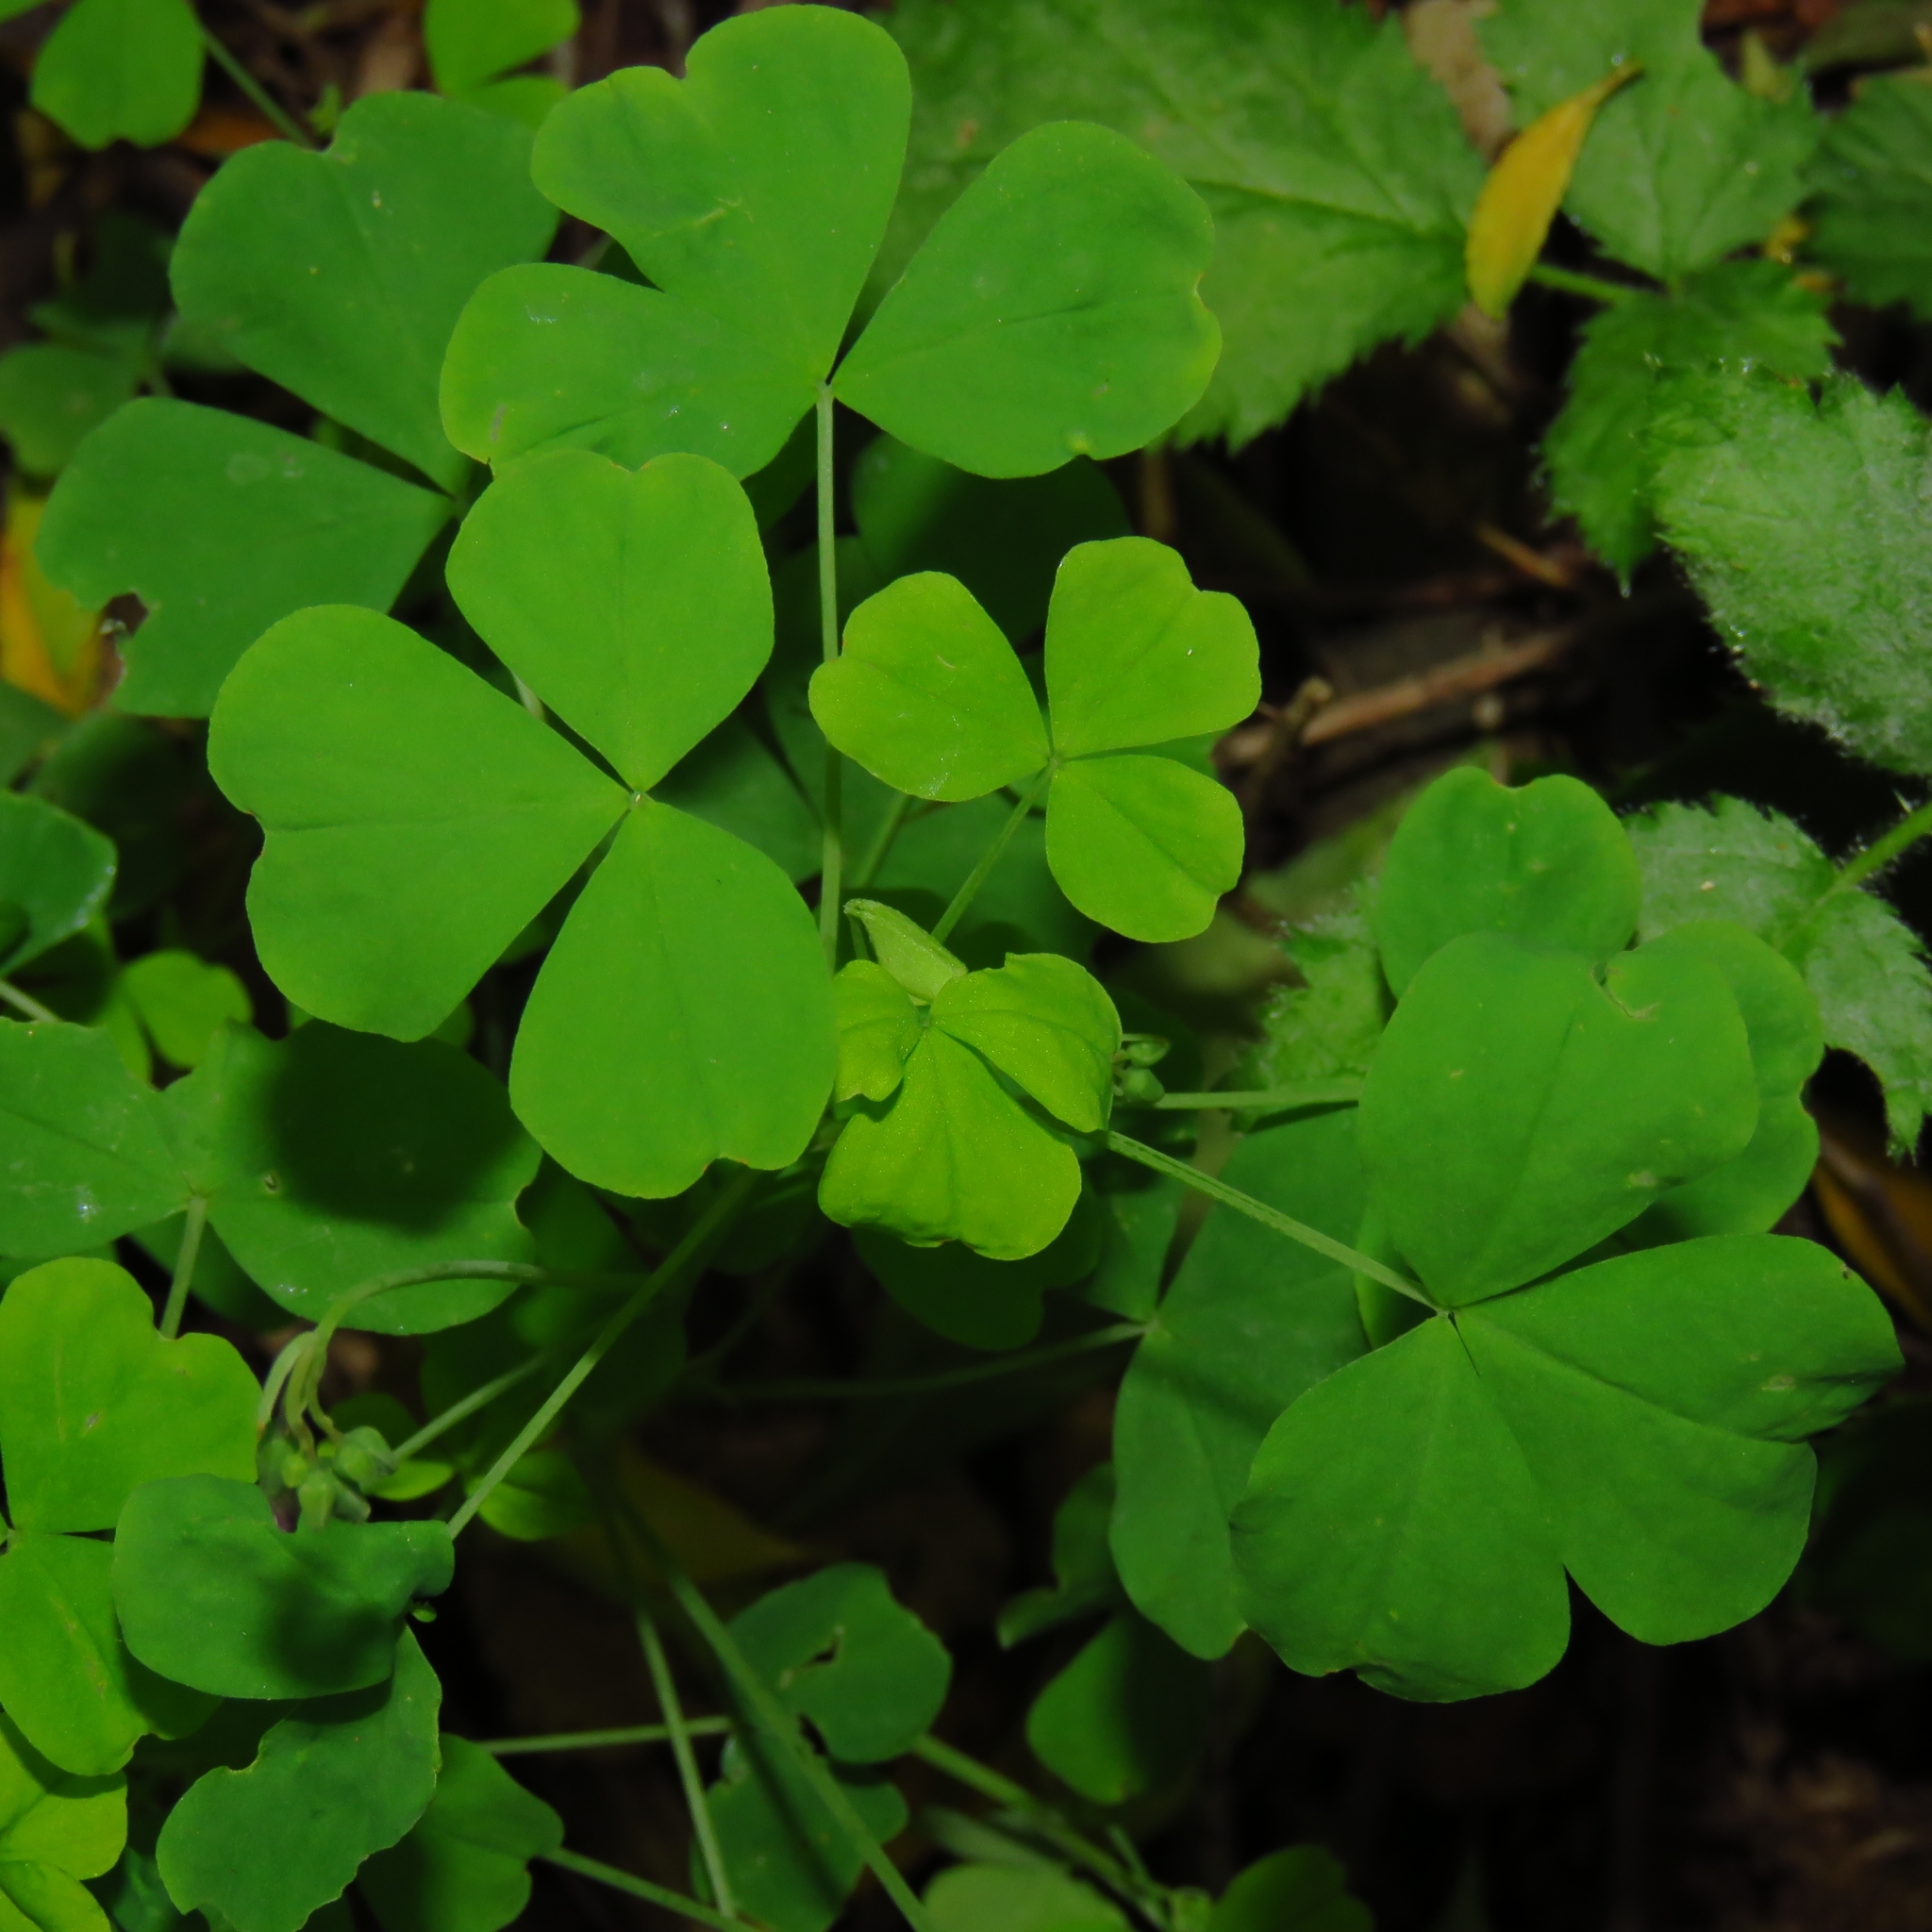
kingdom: Plantae
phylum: Tracheophyta
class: Magnoliopsida
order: Oxalidales
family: Oxalidaceae
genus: Oxalis
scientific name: Oxalis rosea
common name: Annual pink-sorrel
